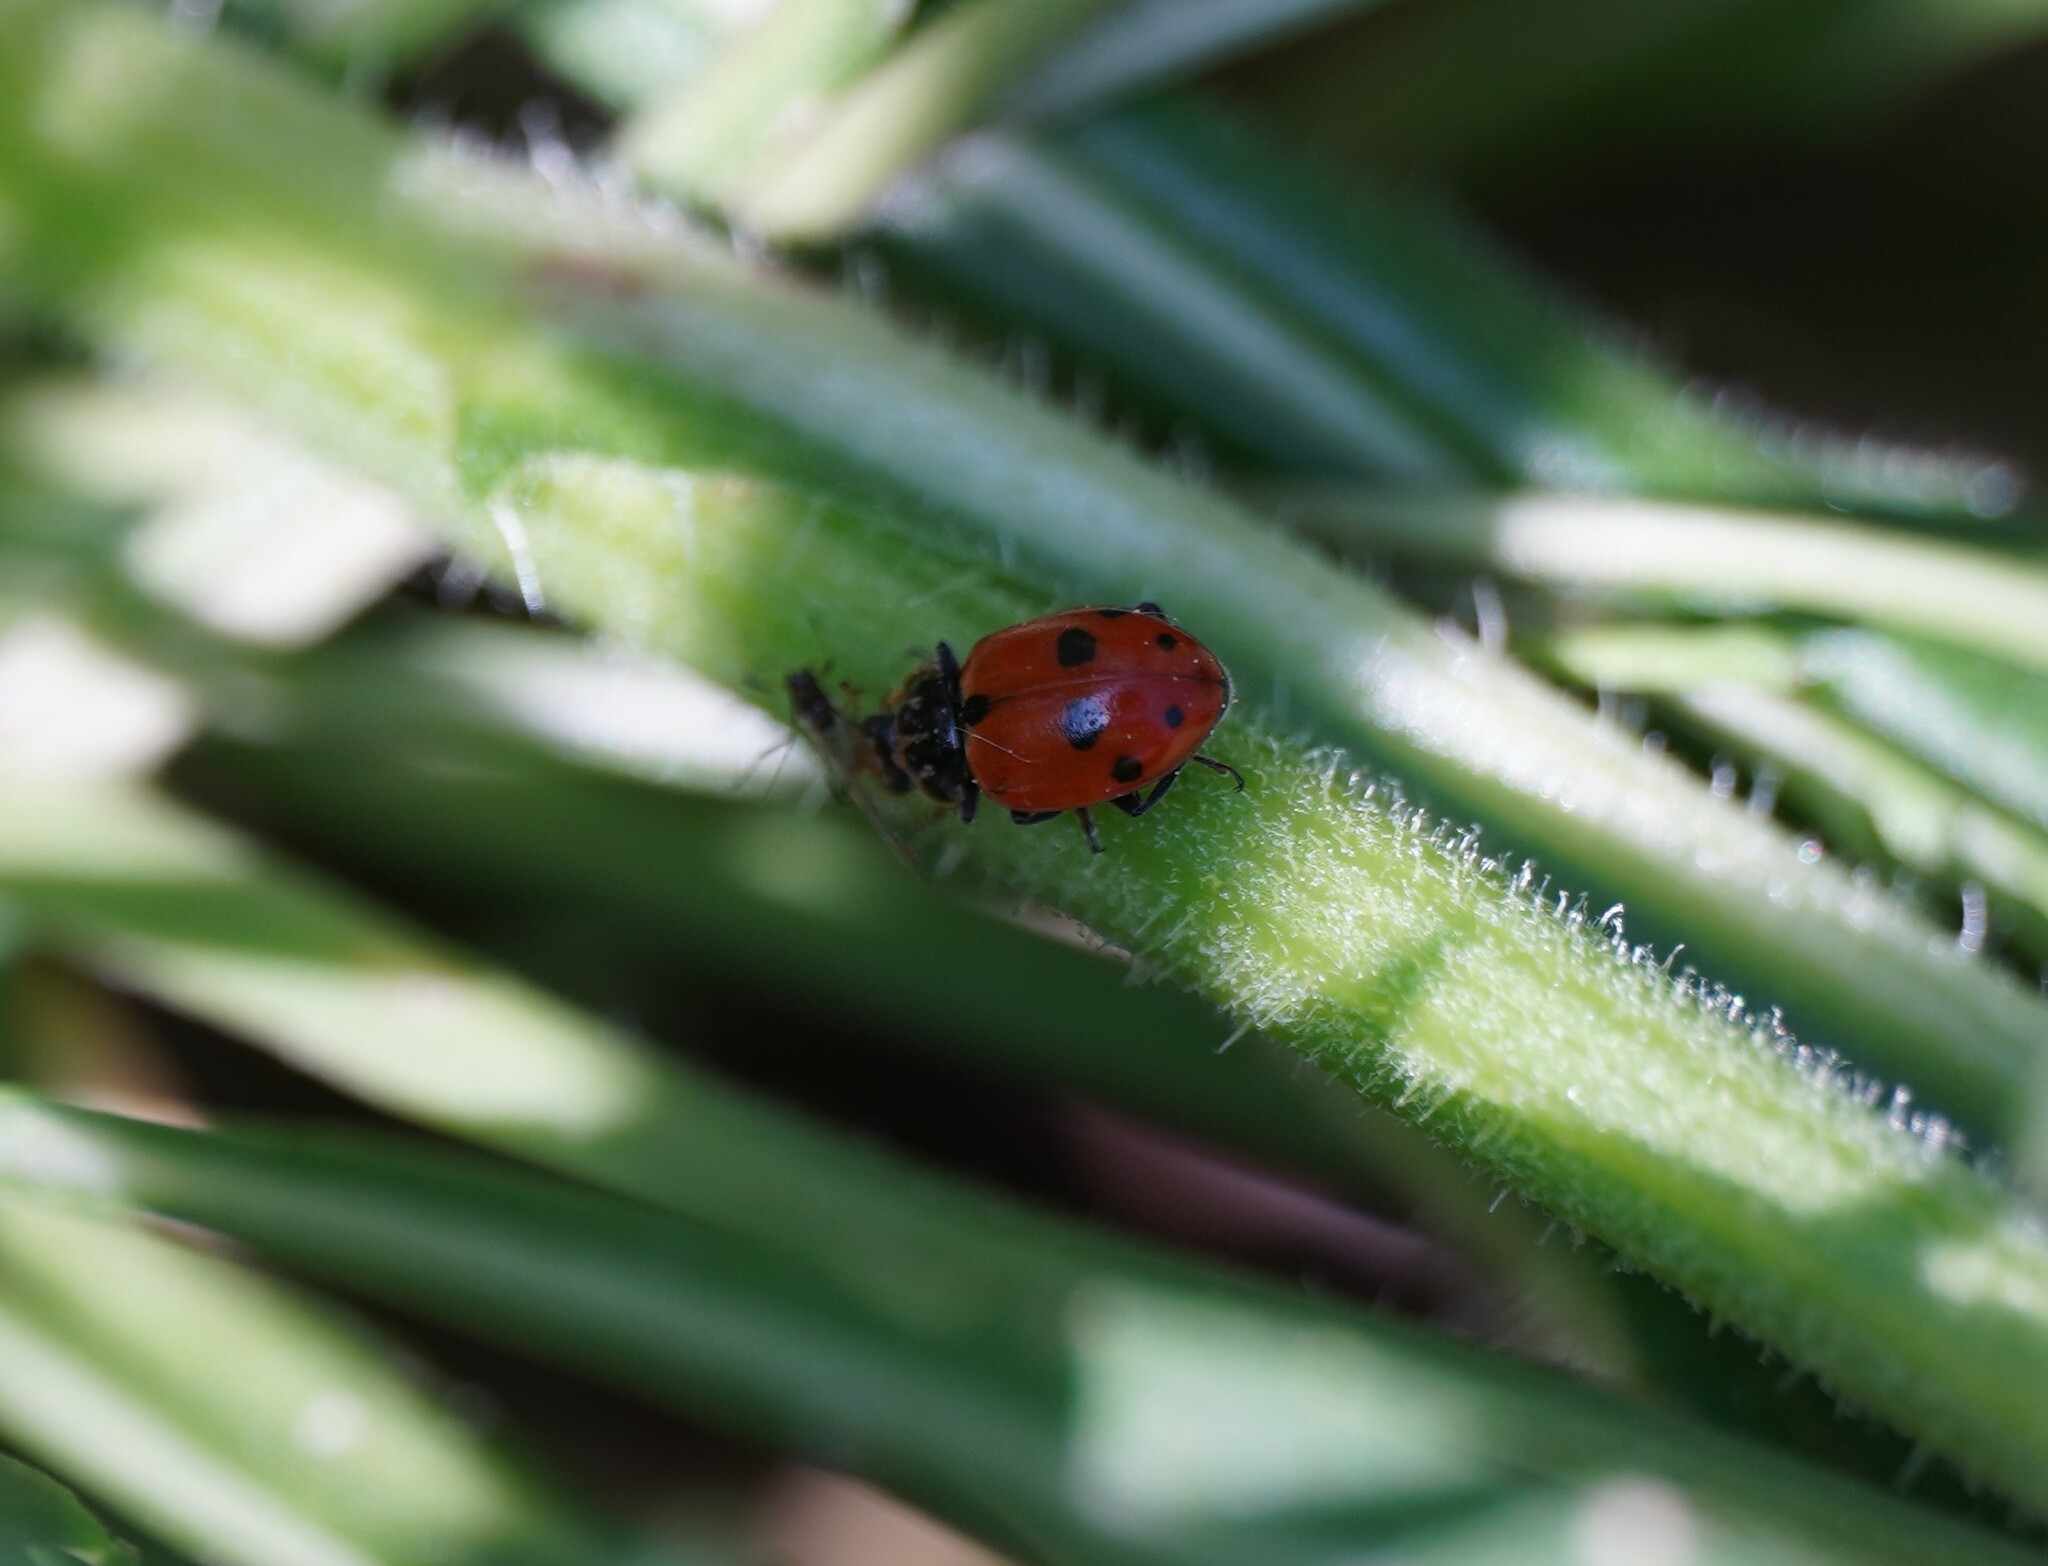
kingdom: Animalia
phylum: Arthropoda
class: Insecta
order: Coleoptera
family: Coccinellidae
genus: Hippodamia
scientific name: Hippodamia variegata
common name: Ladybird beetle
